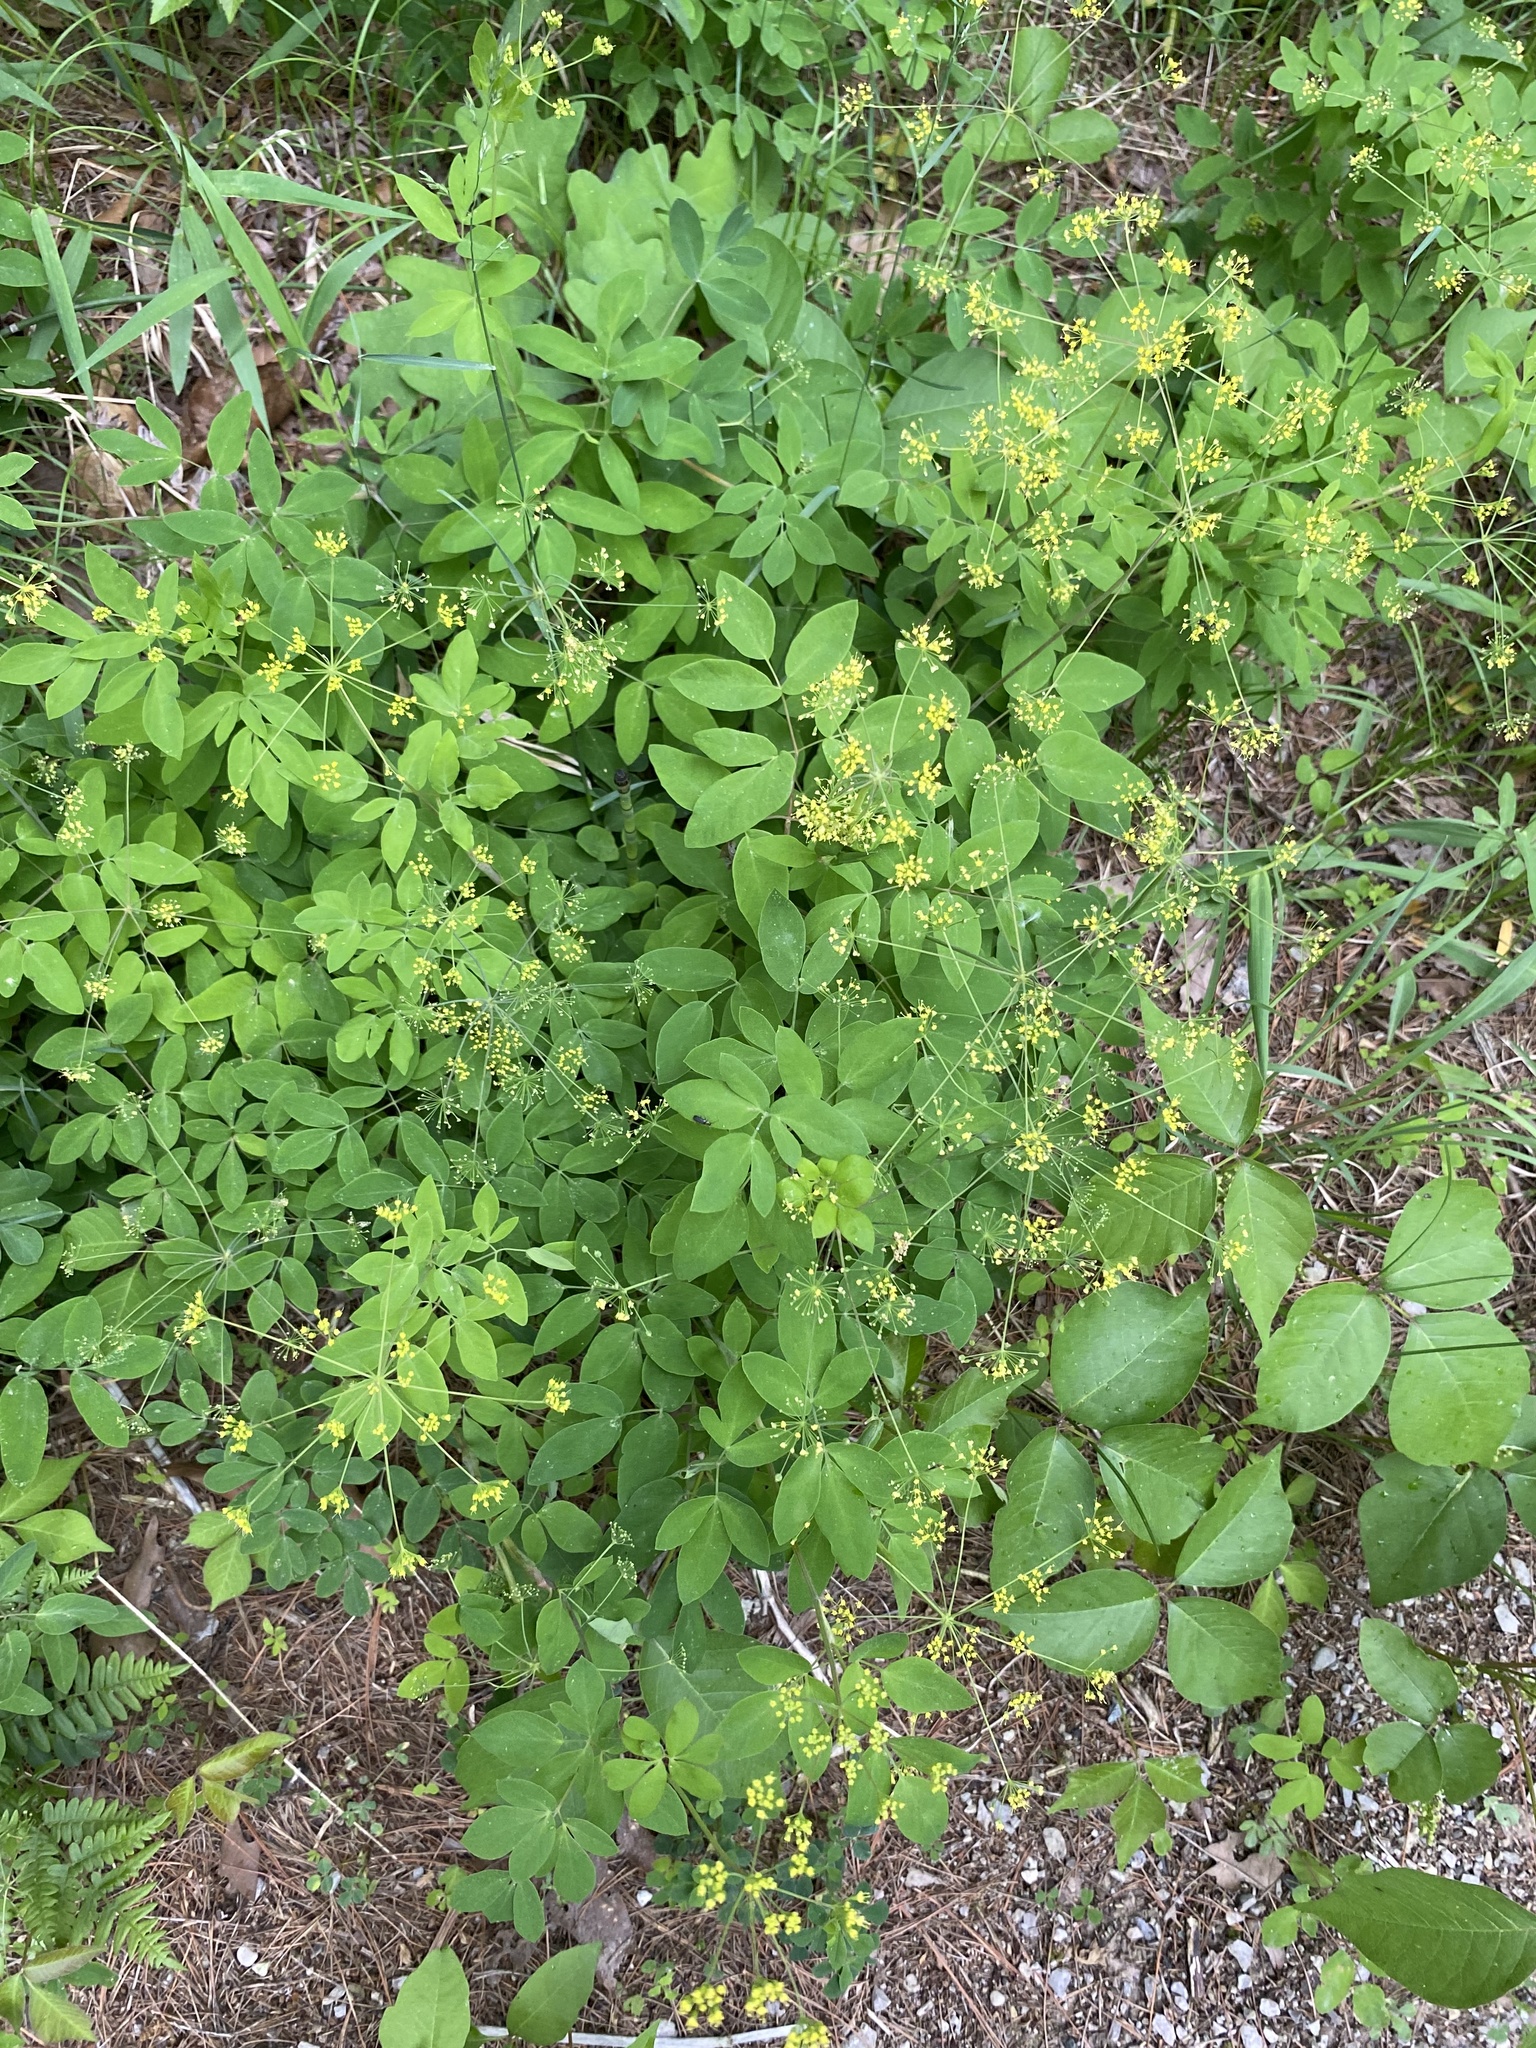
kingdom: Plantae
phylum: Tracheophyta
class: Magnoliopsida
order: Apiales
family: Apiaceae
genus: Taenidia
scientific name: Taenidia integerrima
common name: Golden alexander
